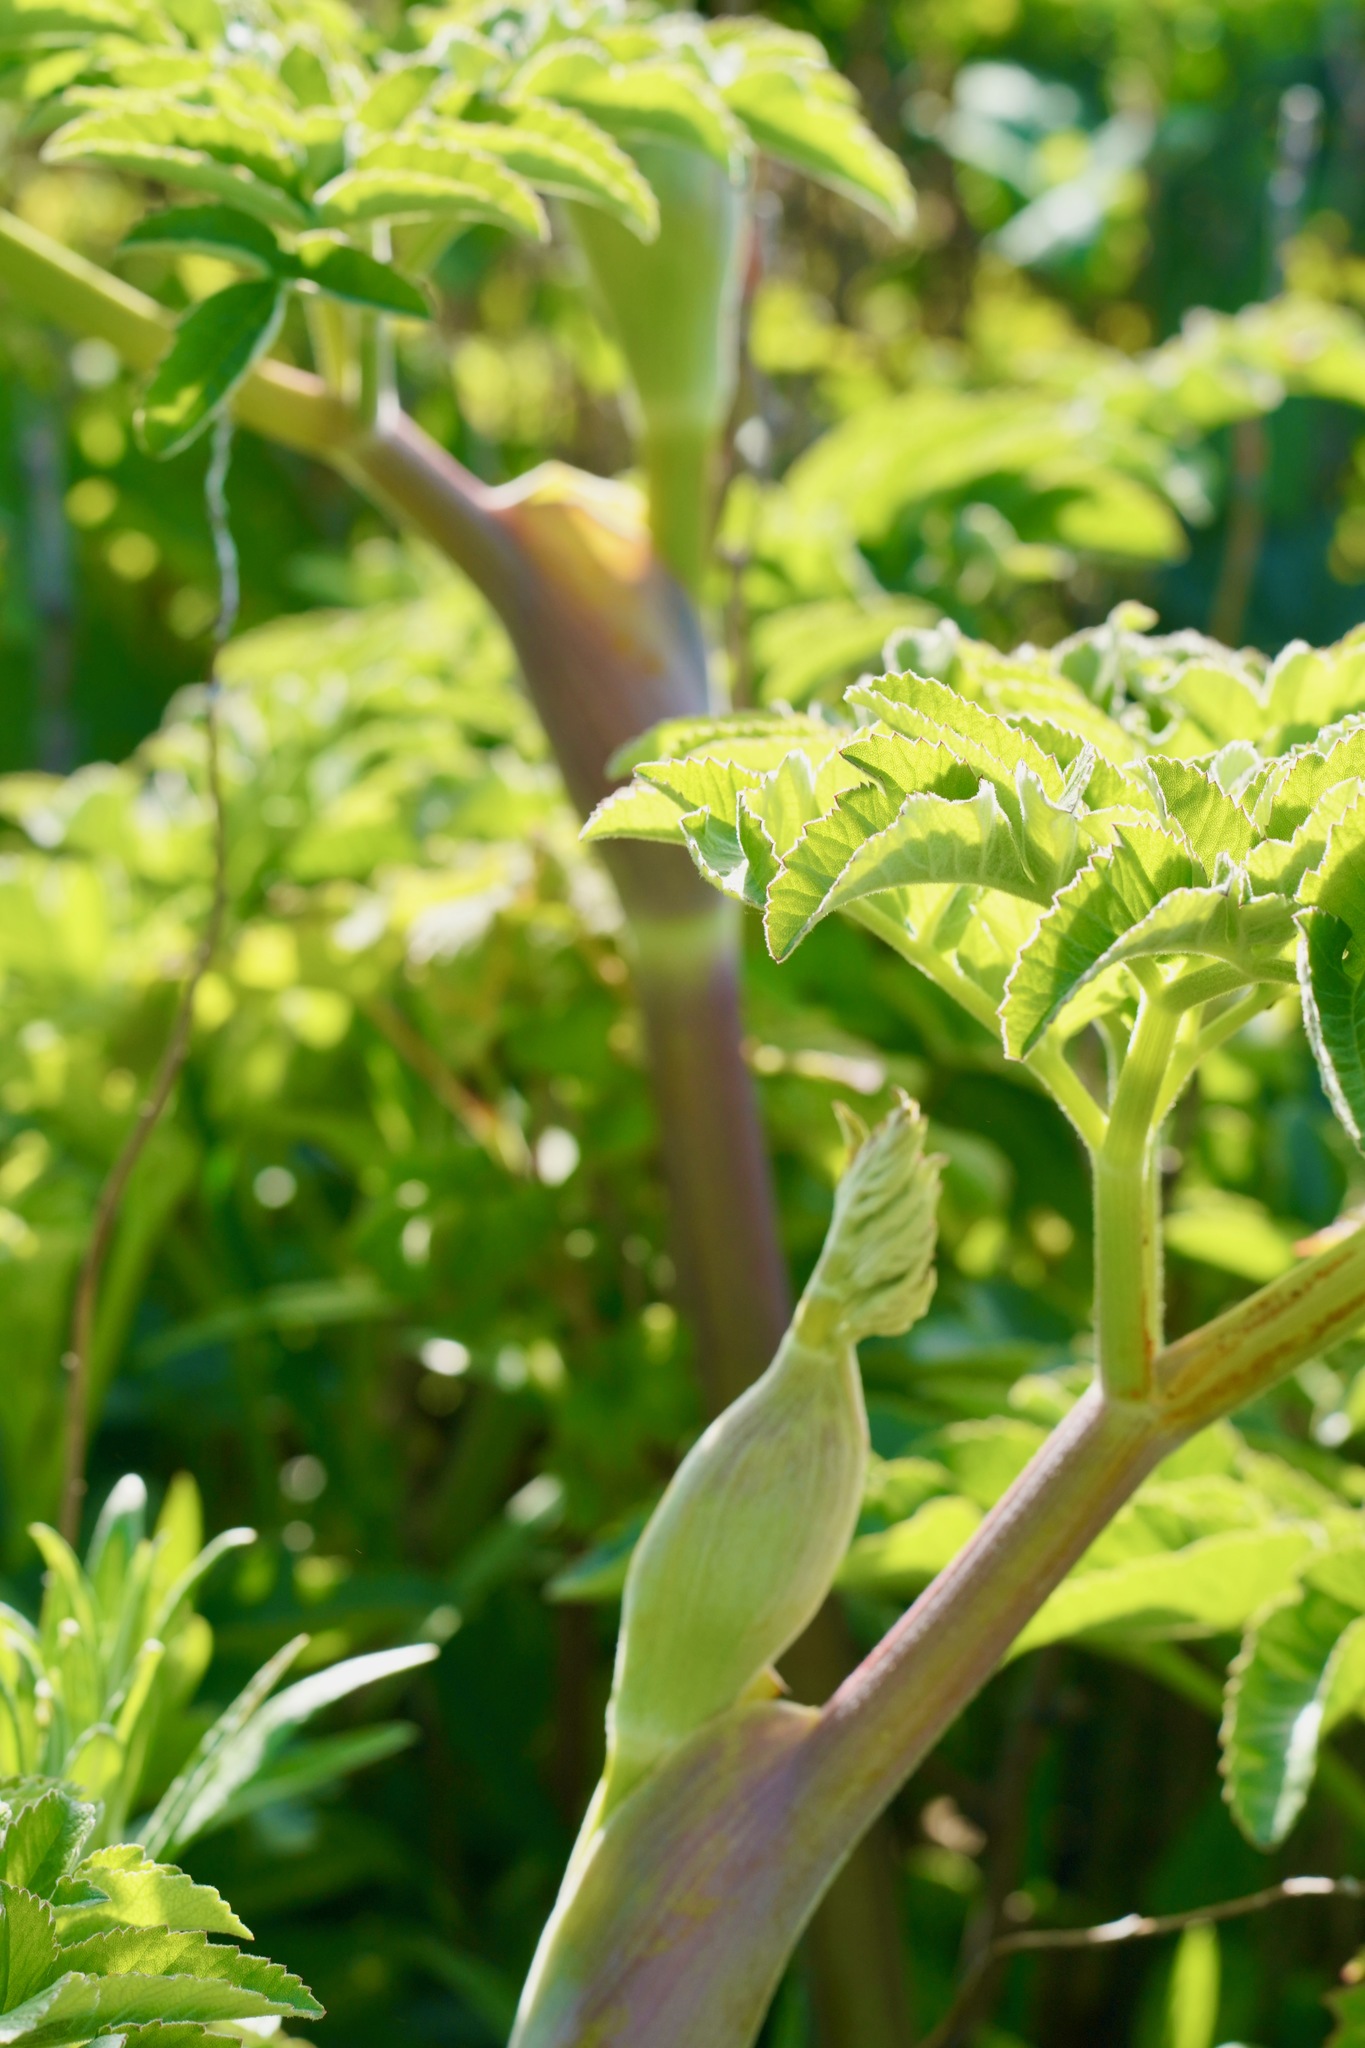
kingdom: Plantae
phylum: Tracheophyta
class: Magnoliopsida
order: Apiales
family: Apiaceae
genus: Heracleum
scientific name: Heracleum maximum
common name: American cow parsnip
